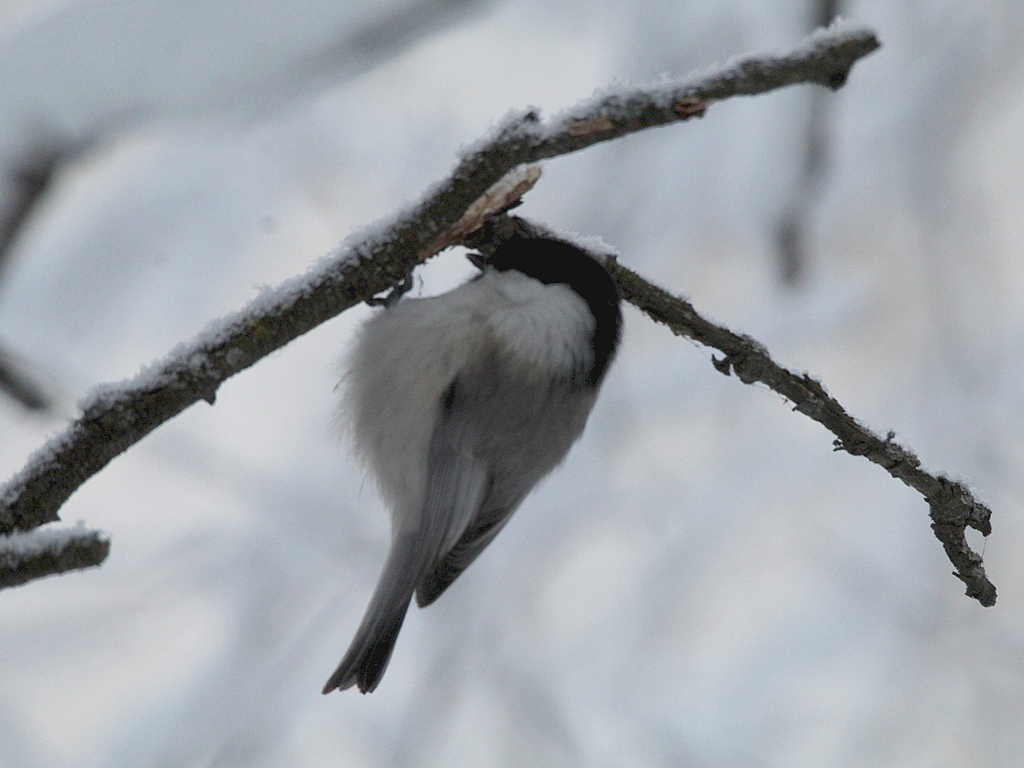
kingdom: Animalia
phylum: Chordata
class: Aves
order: Passeriformes
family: Paridae
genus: Poecile
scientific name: Poecile montanus
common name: Willow tit
